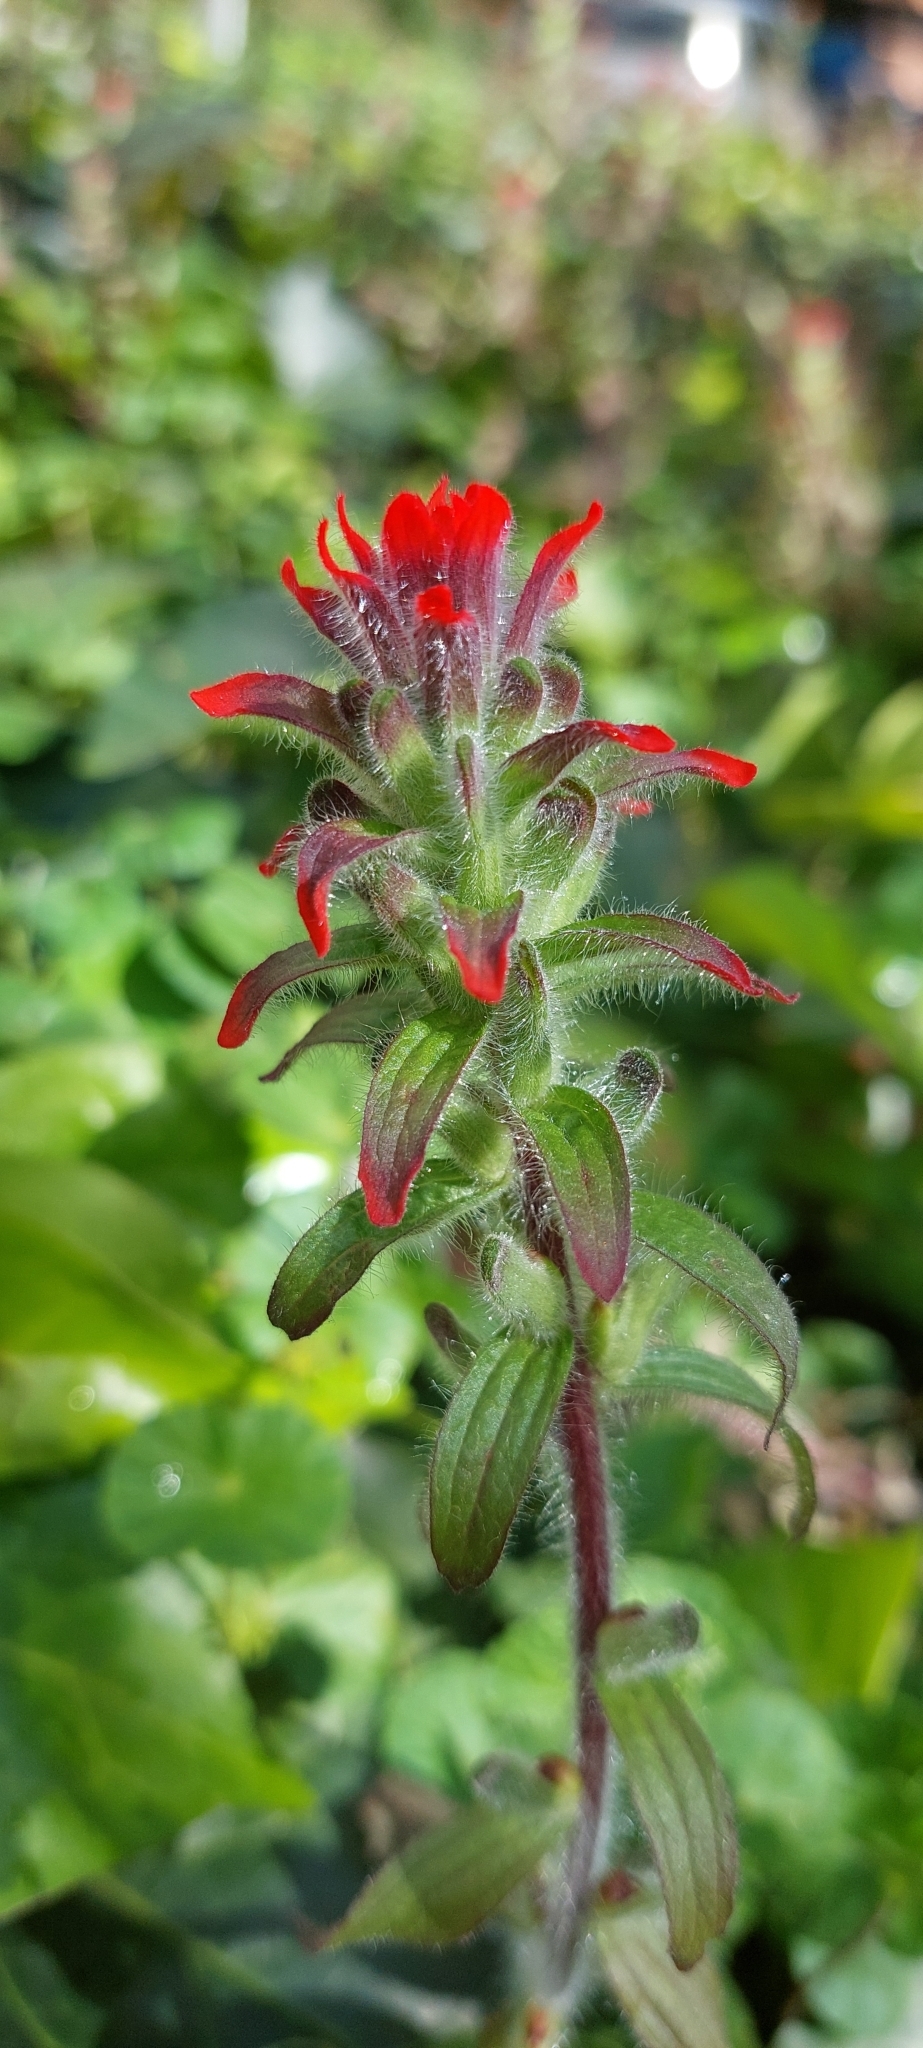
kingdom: Plantae
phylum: Tracheophyta
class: Magnoliopsida
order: Lamiales
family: Orobanchaceae
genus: Castilleja
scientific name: Castilleja arvensis
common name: Indian paintbrush
